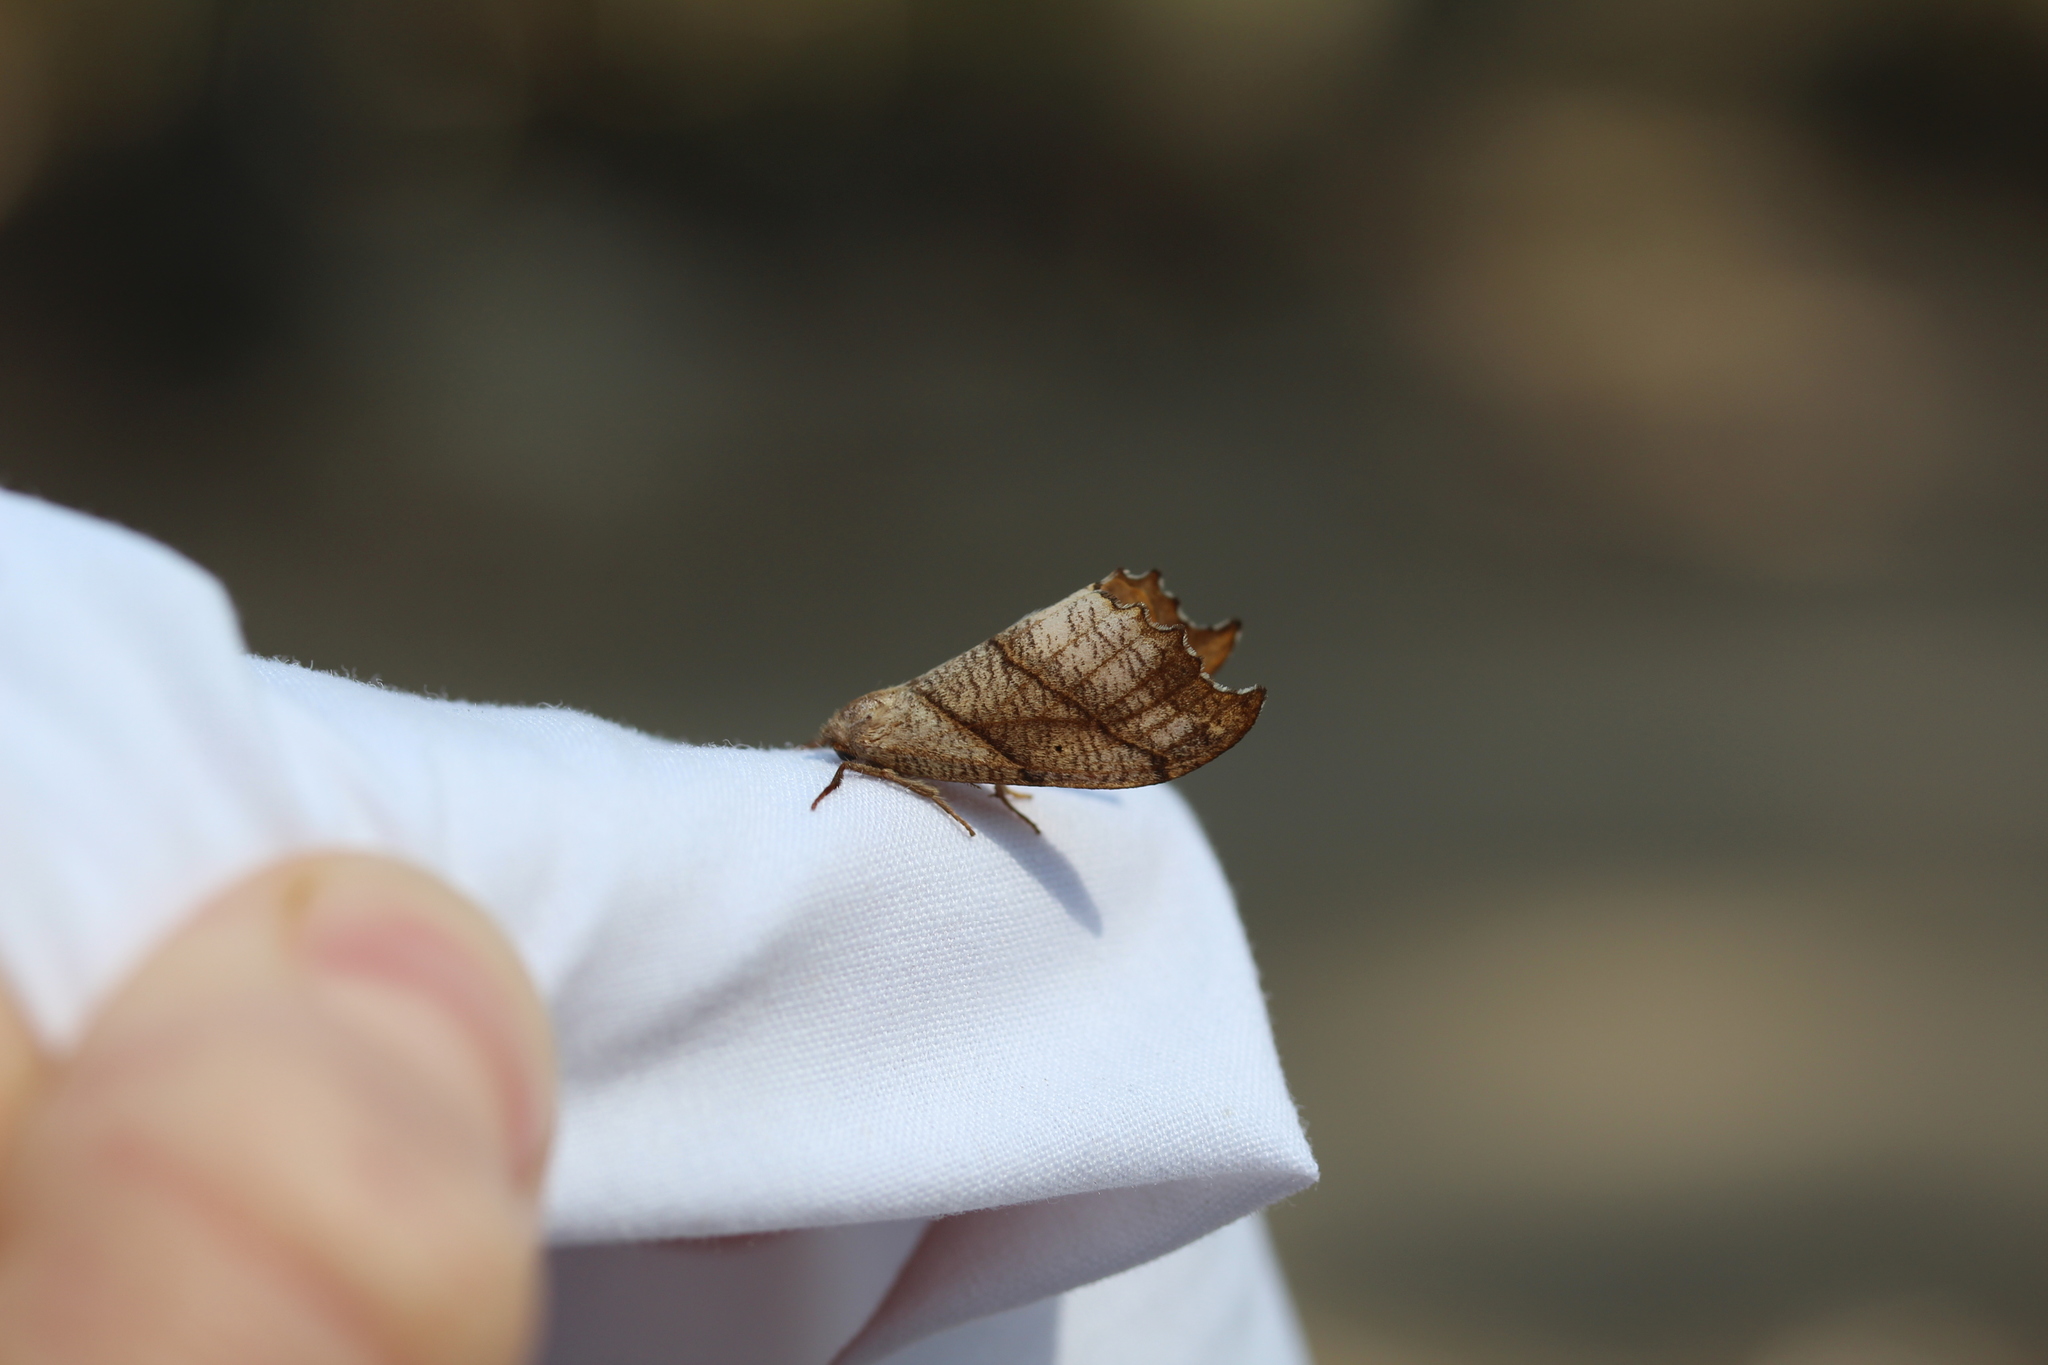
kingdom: Animalia
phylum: Arthropoda
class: Insecta
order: Lepidoptera
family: Drepanidae
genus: Falcaria
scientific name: Falcaria bilineata
